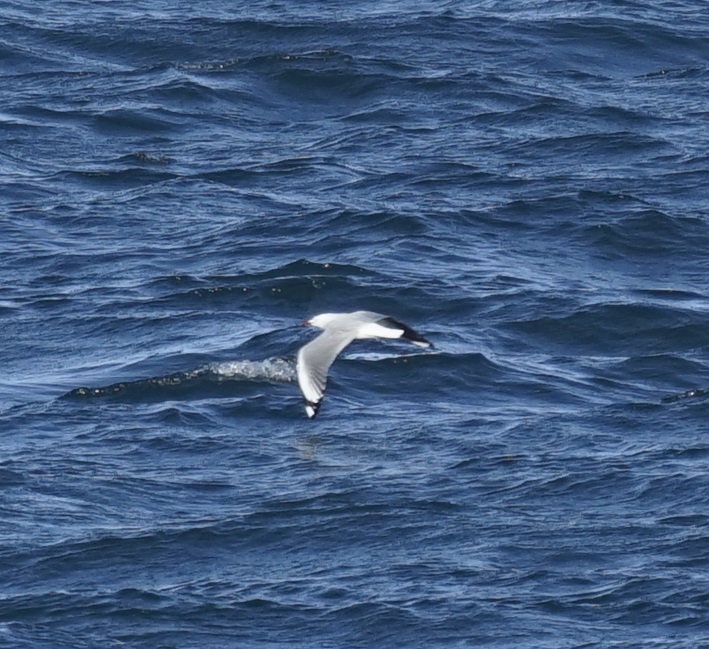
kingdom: Animalia
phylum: Chordata
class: Aves
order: Charadriiformes
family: Laridae
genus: Chroicocephalus
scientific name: Chroicocephalus novaehollandiae
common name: Silver gull
